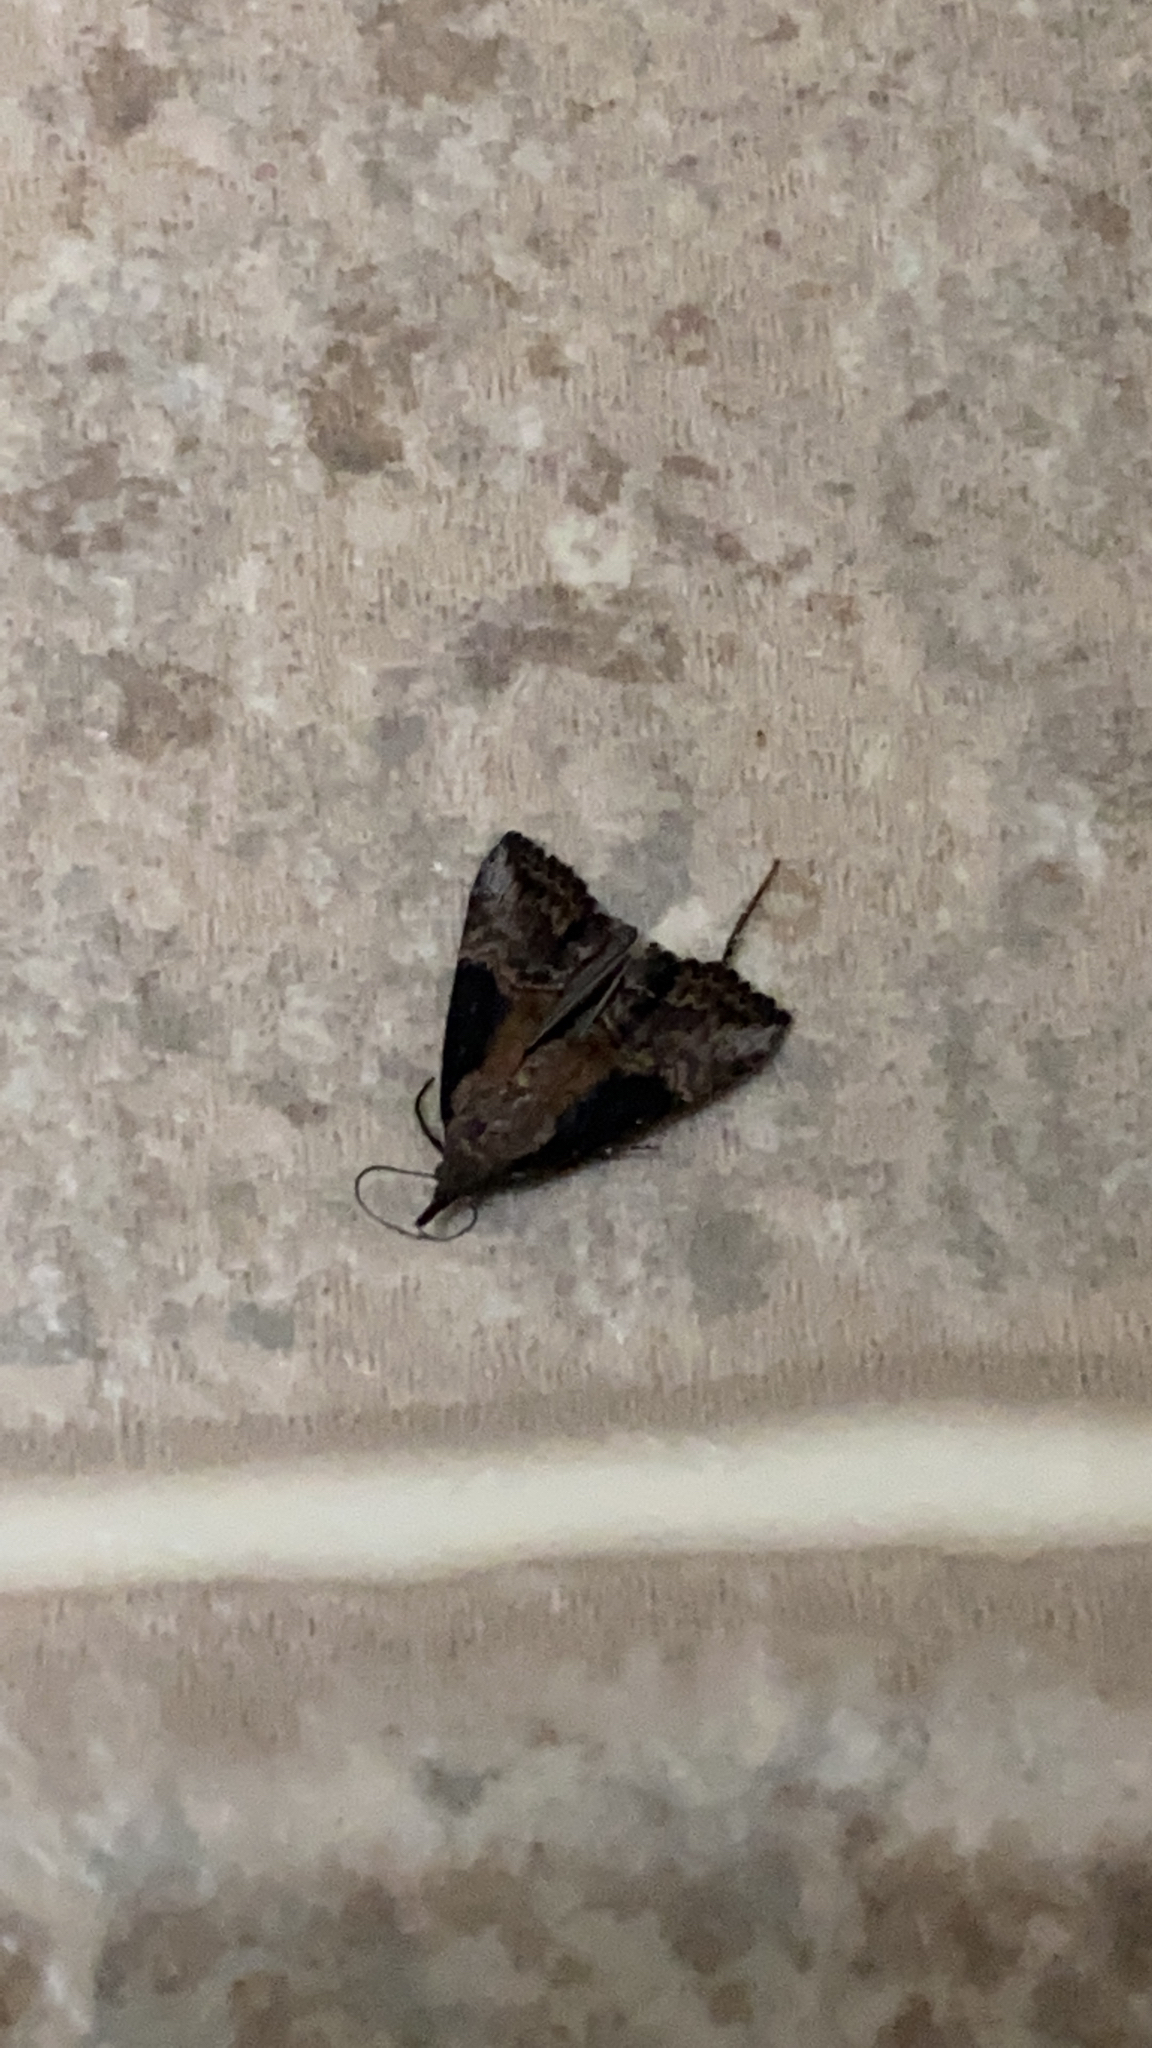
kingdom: Animalia
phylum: Arthropoda
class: Insecta
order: Lepidoptera
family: Erebidae
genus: Hypena
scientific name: Hypena scabra
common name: Green cloverworm
